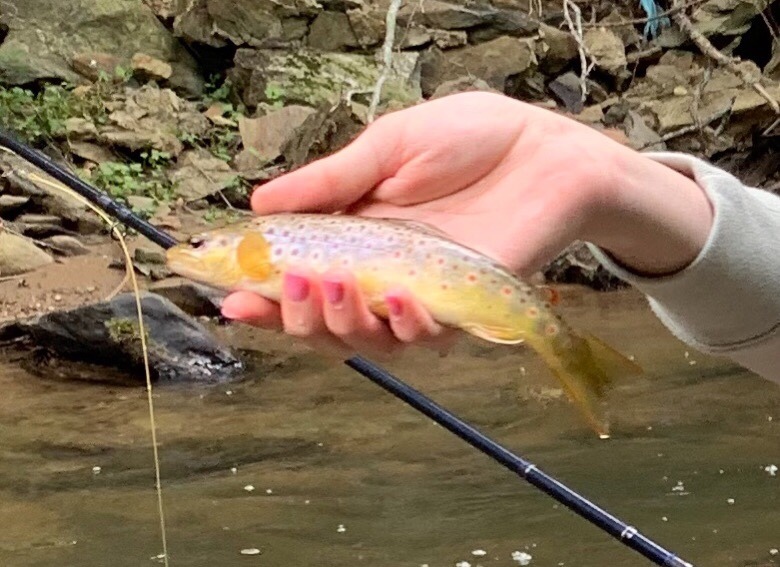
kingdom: Animalia
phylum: Chordata
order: Salmoniformes
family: Salmonidae
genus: Salmo
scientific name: Salmo trutta
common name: Brown trout
